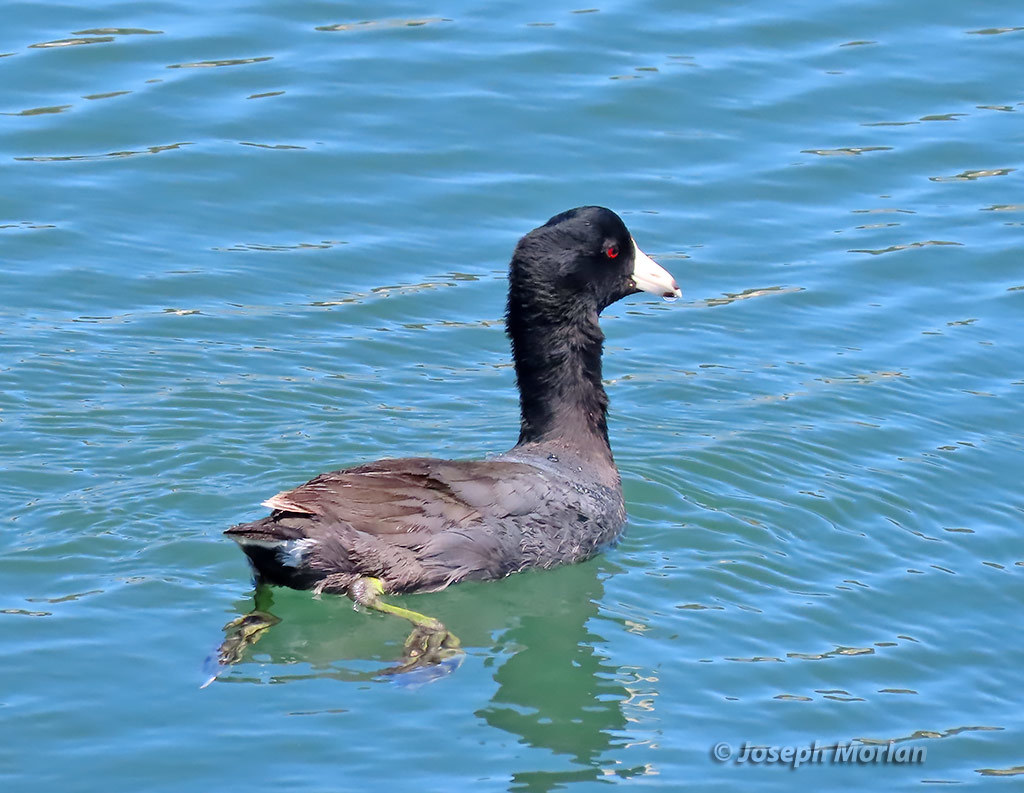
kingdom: Animalia
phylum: Chordata
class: Aves
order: Gruiformes
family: Rallidae
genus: Fulica
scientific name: Fulica americana
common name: American coot
